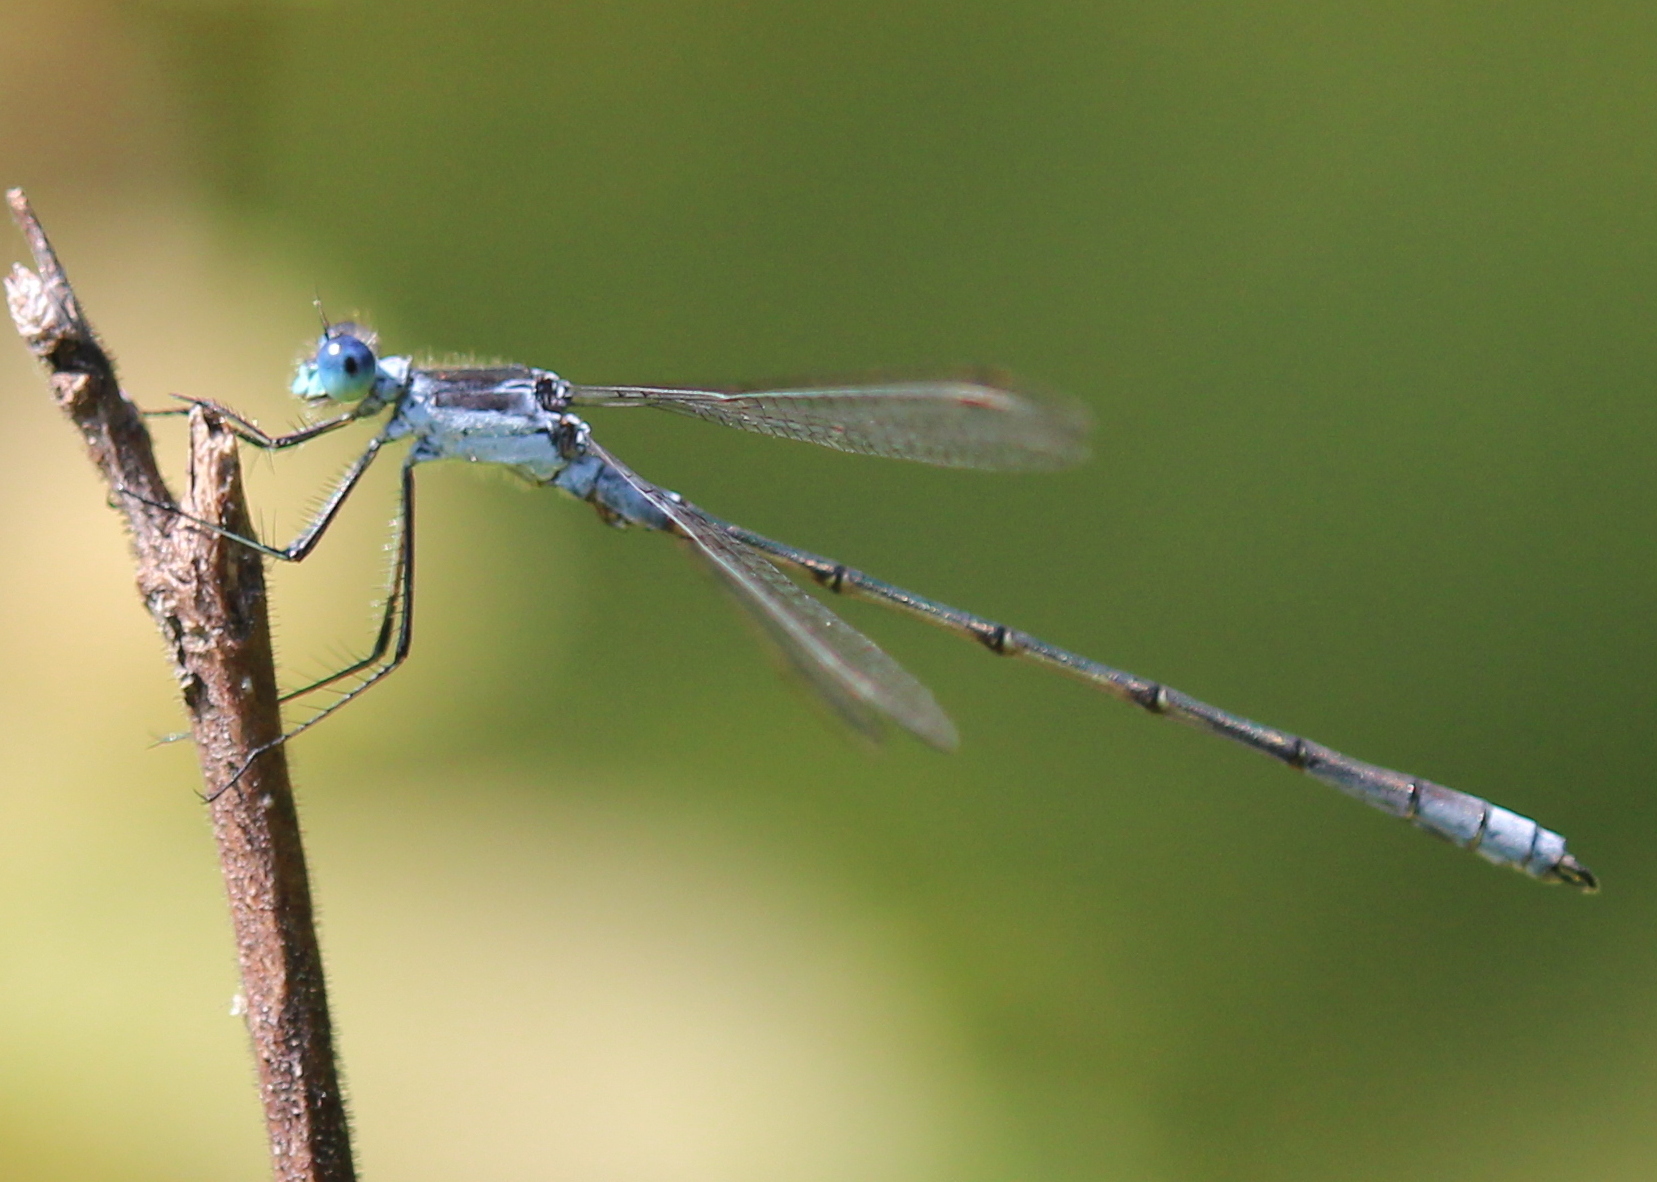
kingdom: Animalia
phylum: Arthropoda
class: Insecta
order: Odonata
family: Lestidae
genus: Lestes
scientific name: Lestes disjunctus
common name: Northern spreadwing
